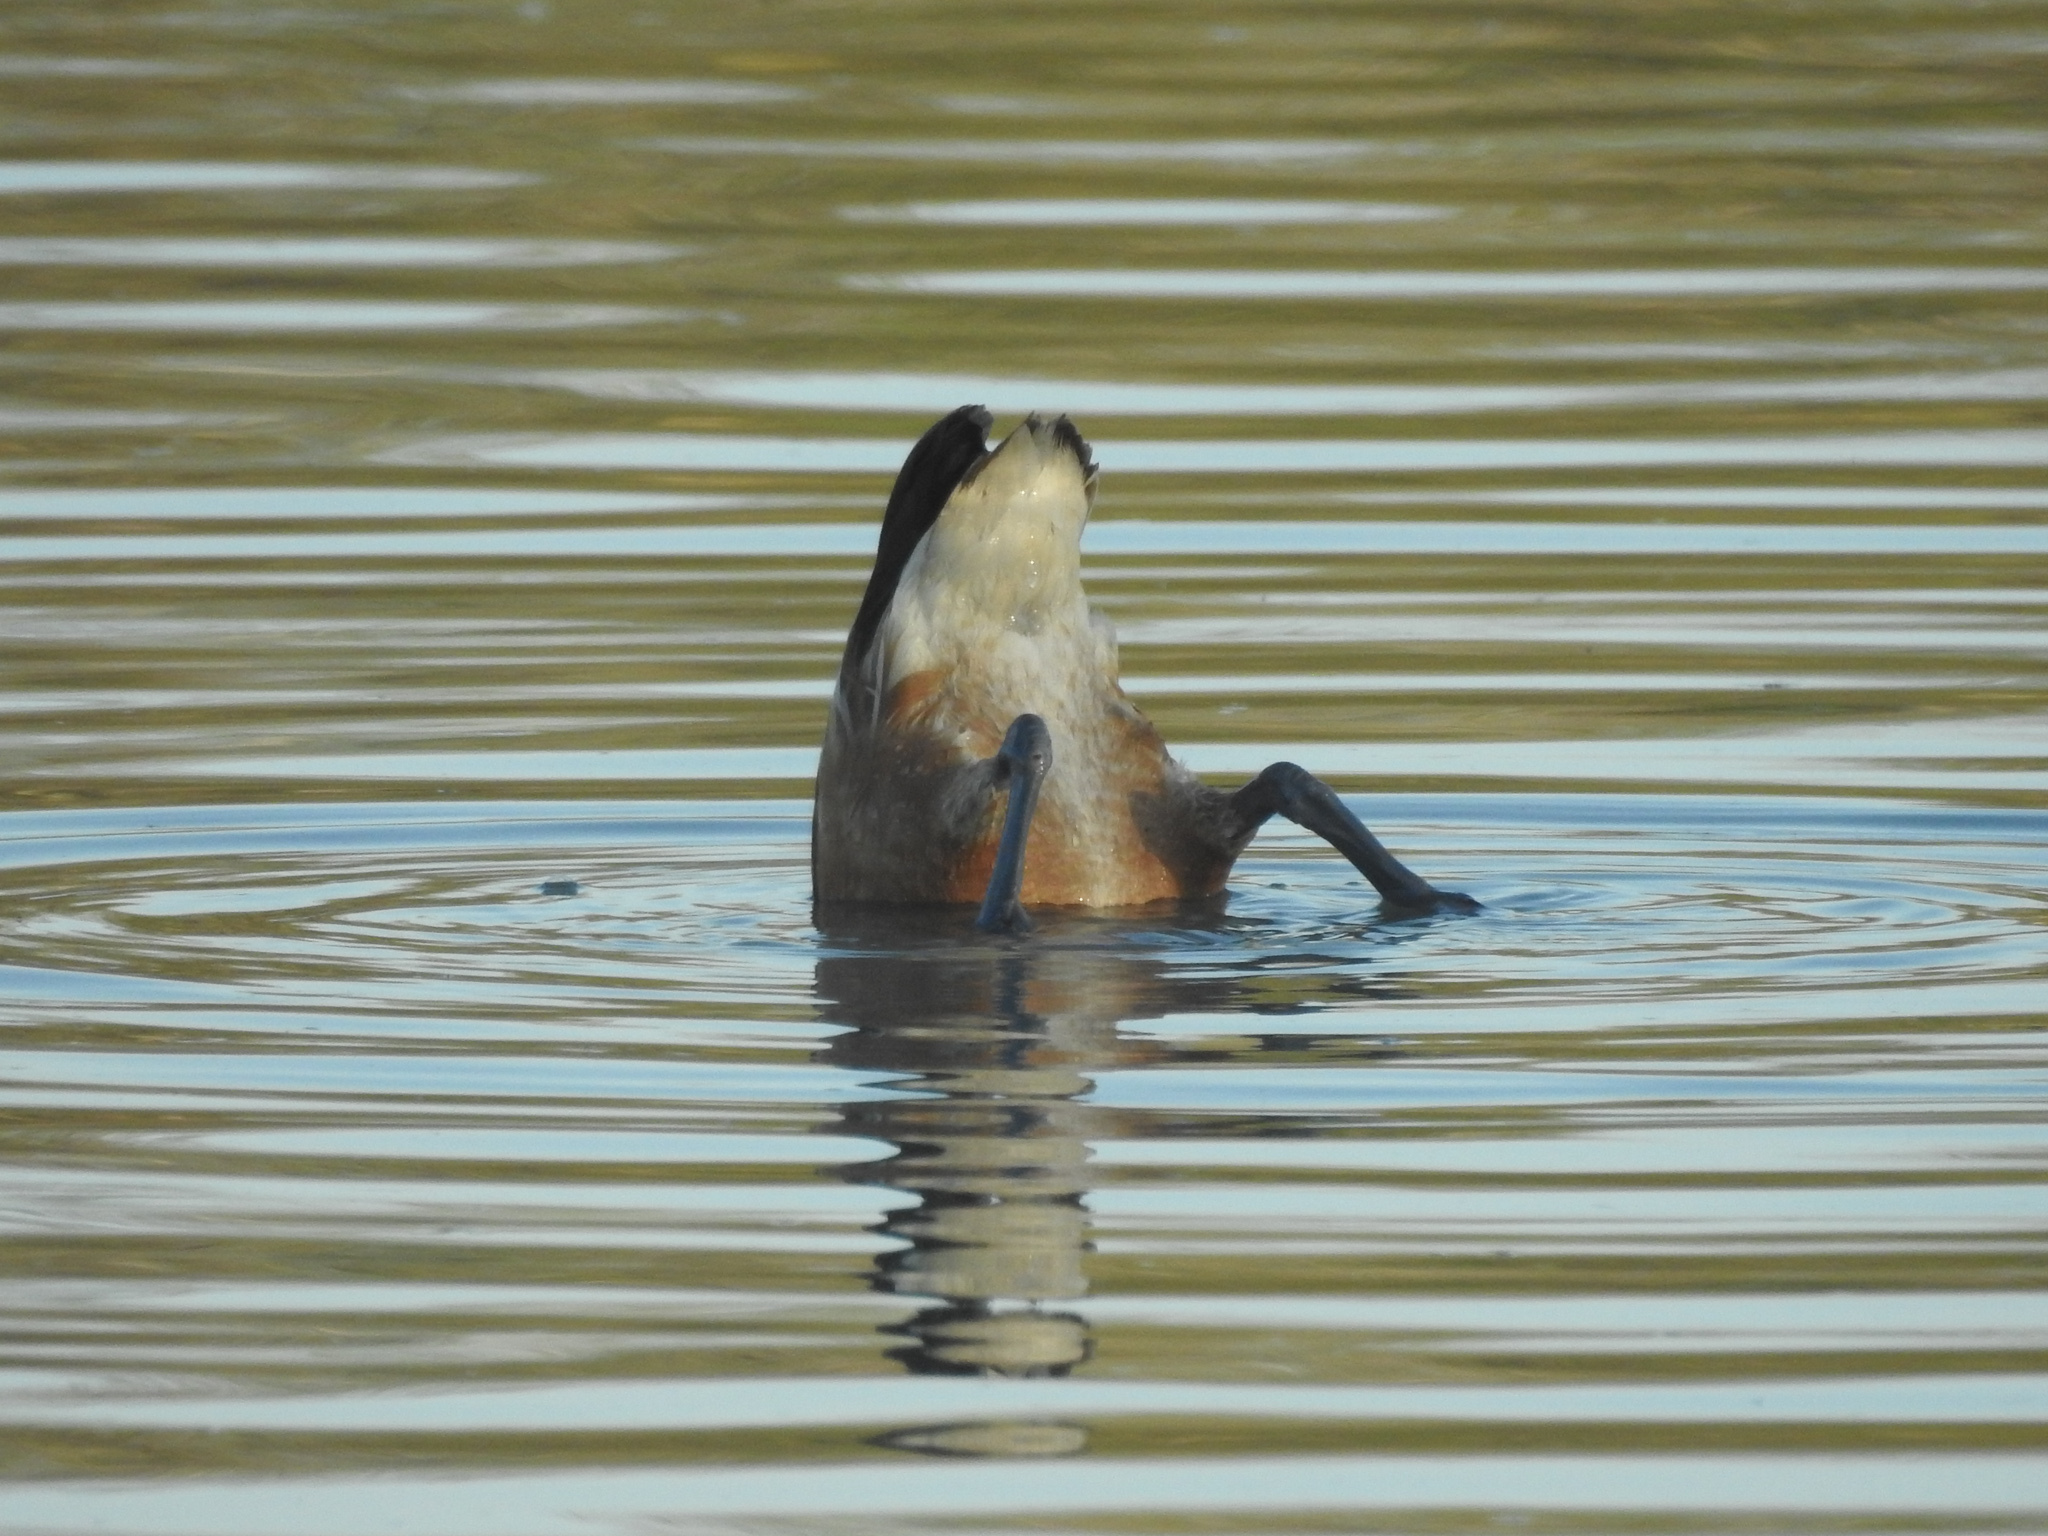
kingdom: Animalia
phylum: Chordata
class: Aves
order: Anseriformes
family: Anatidae
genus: Dendrocygna
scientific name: Dendrocygna bicolor
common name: Fulvous whistling duck
